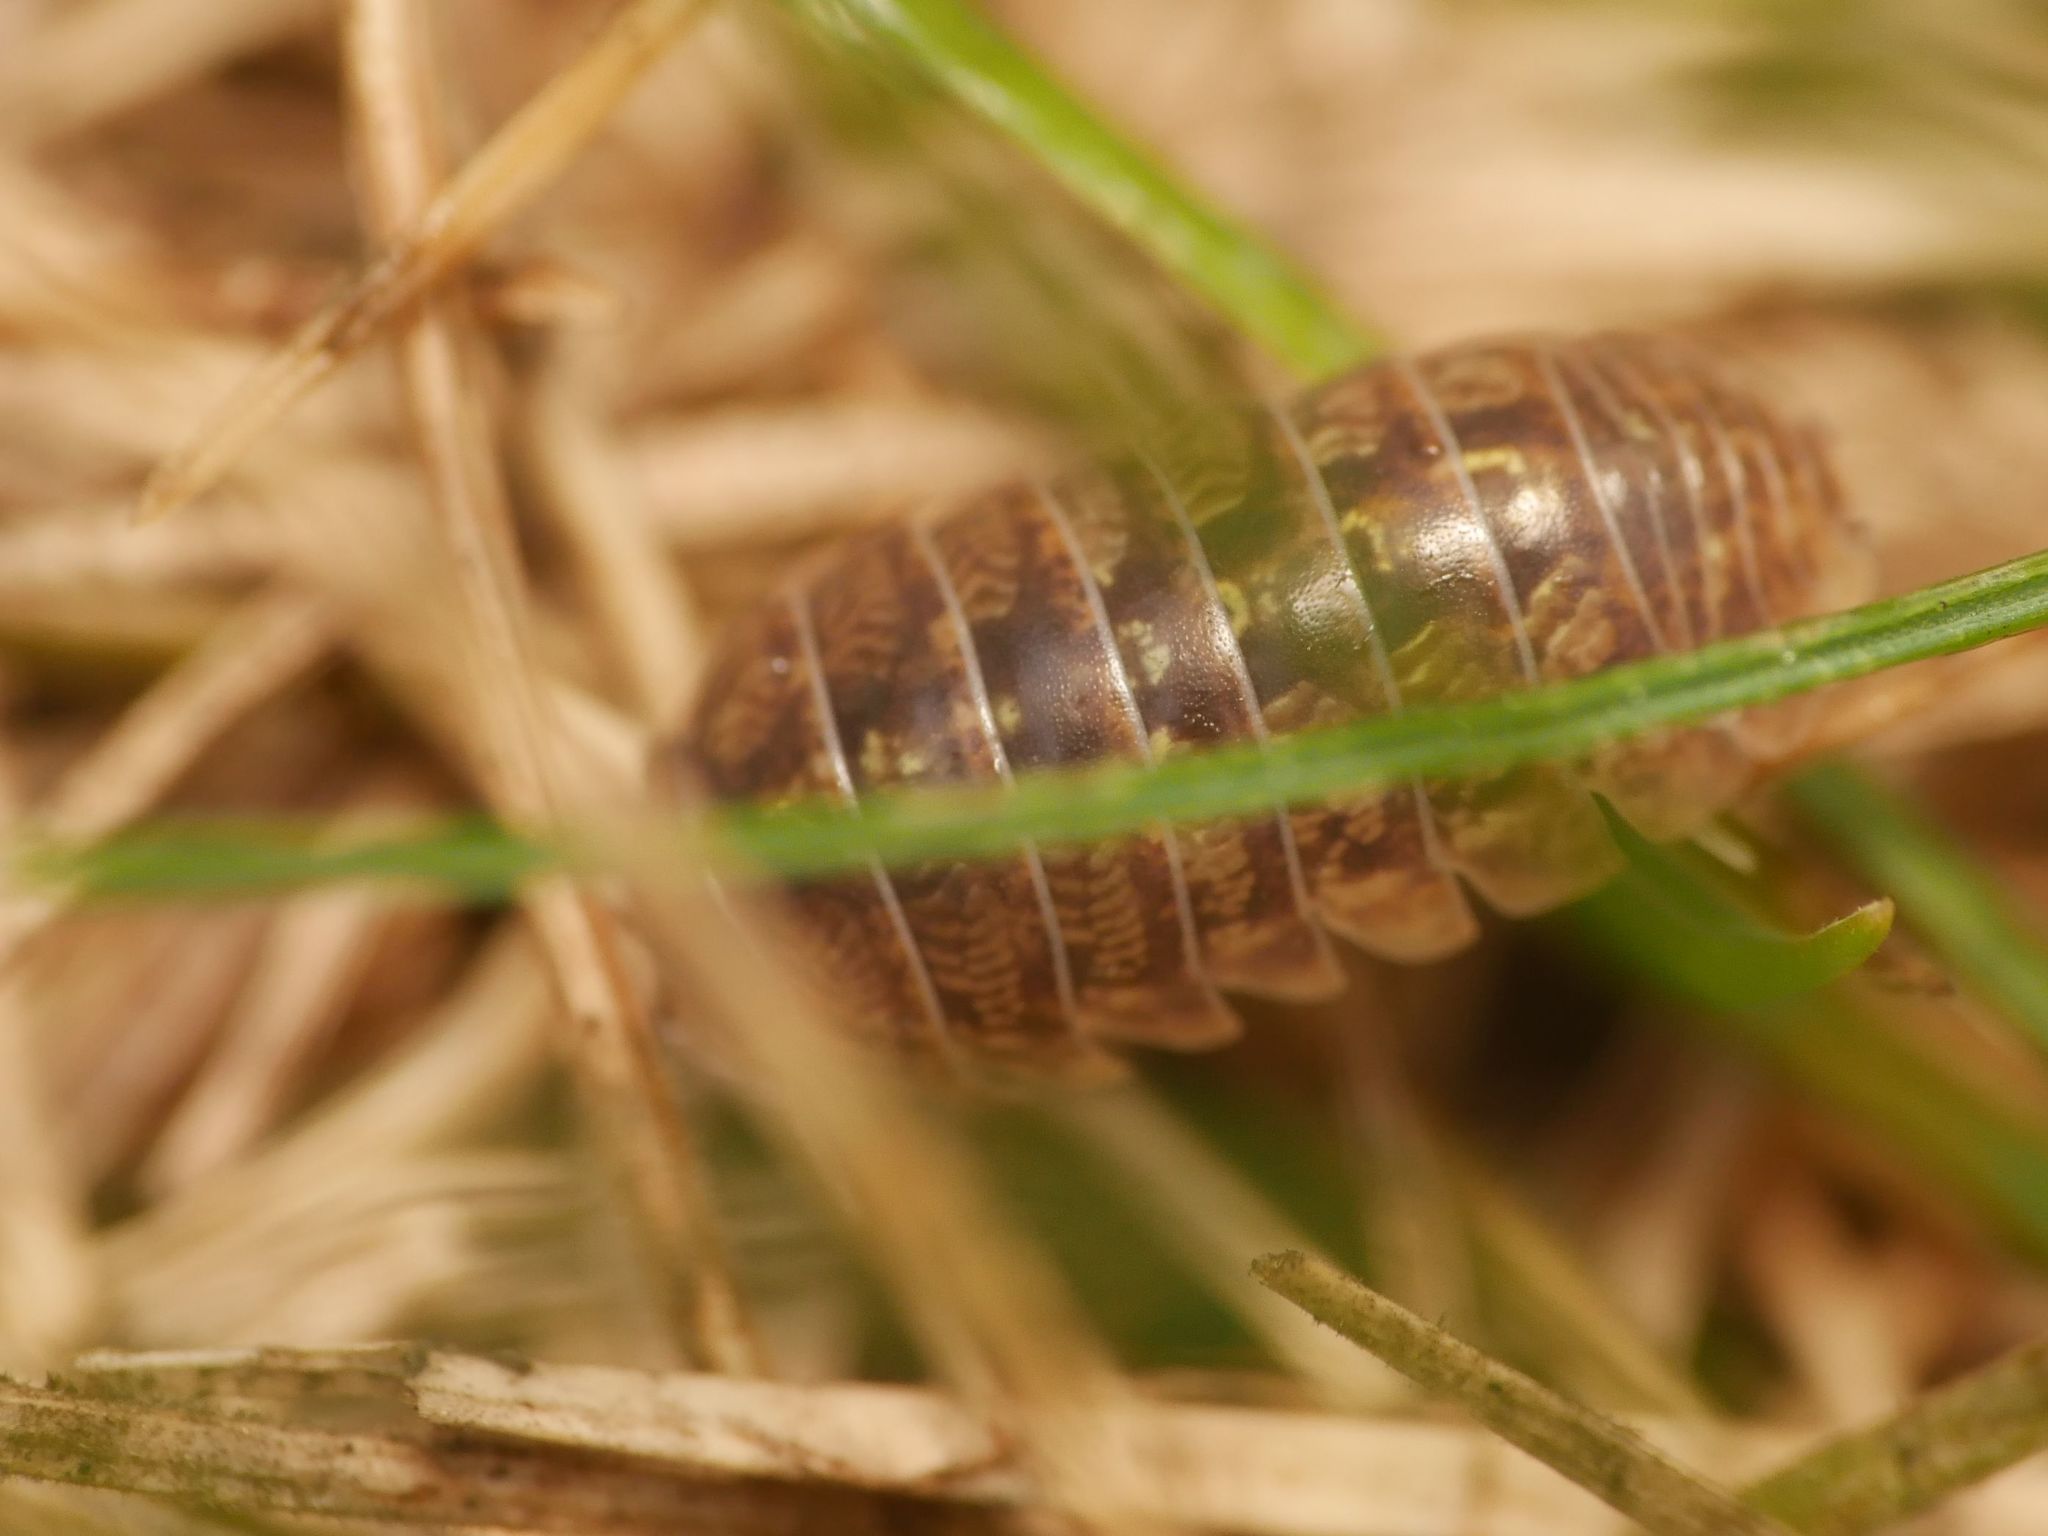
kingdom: Animalia
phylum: Arthropoda
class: Malacostraca
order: Isopoda
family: Armadillidiidae
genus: Armadillidium
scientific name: Armadillidium vulgare
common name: Common pill woodlouse
